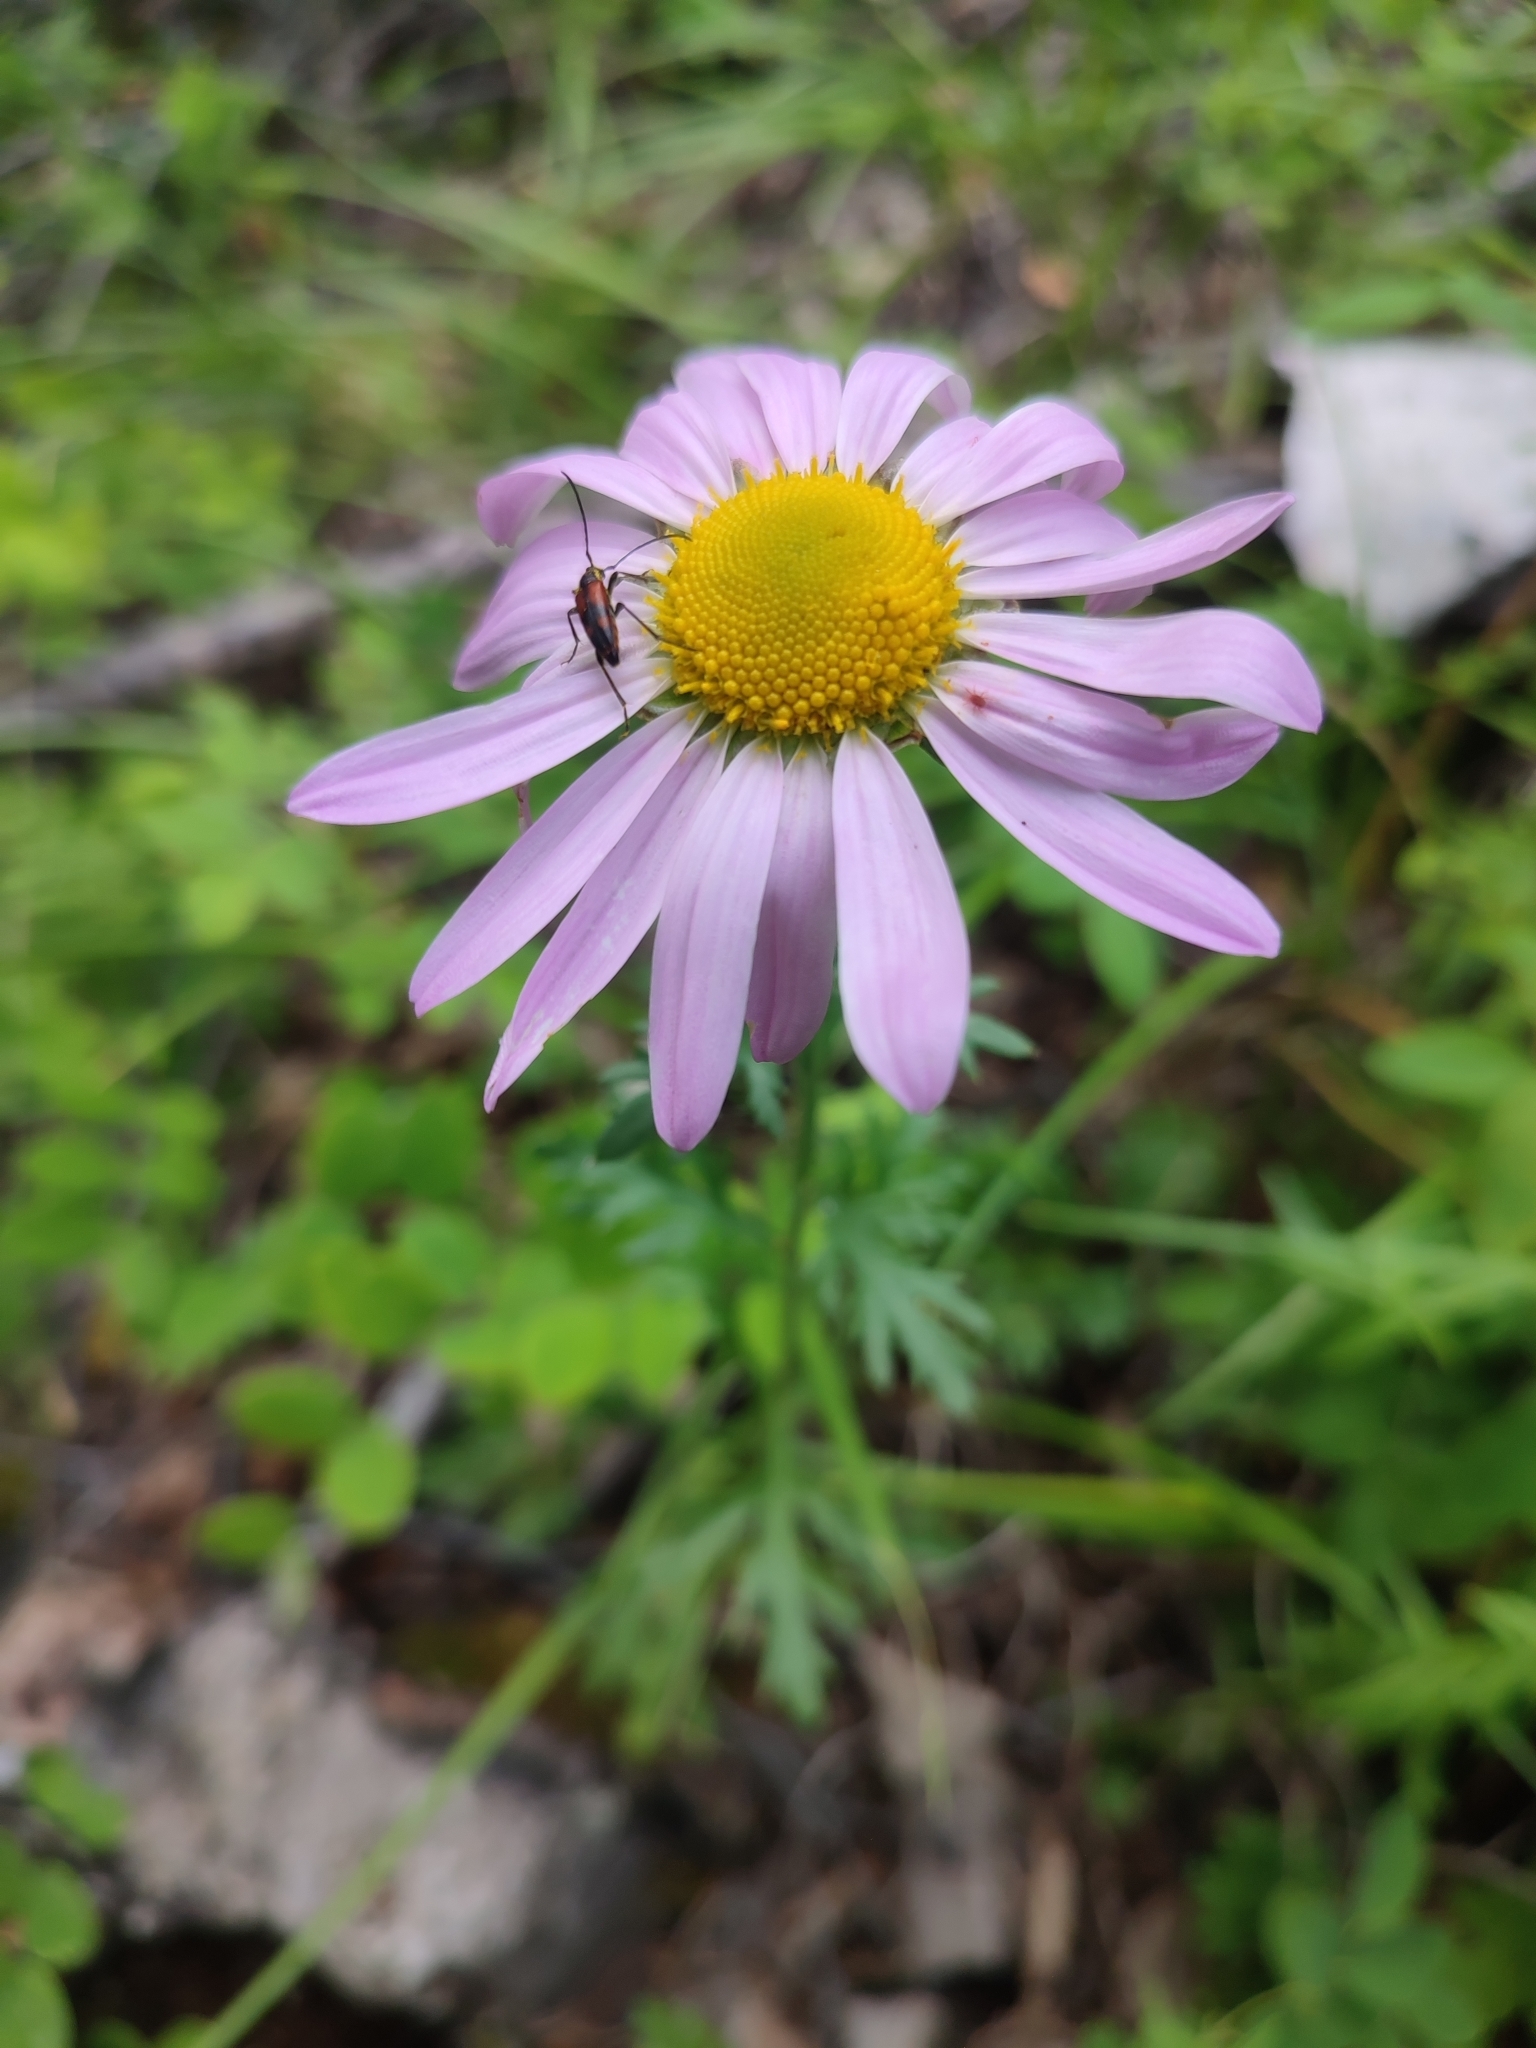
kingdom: Plantae
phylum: Tracheophyta
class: Magnoliopsida
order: Asterales
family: Asteraceae
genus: Chrysanthemum
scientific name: Chrysanthemum zawadzkii
